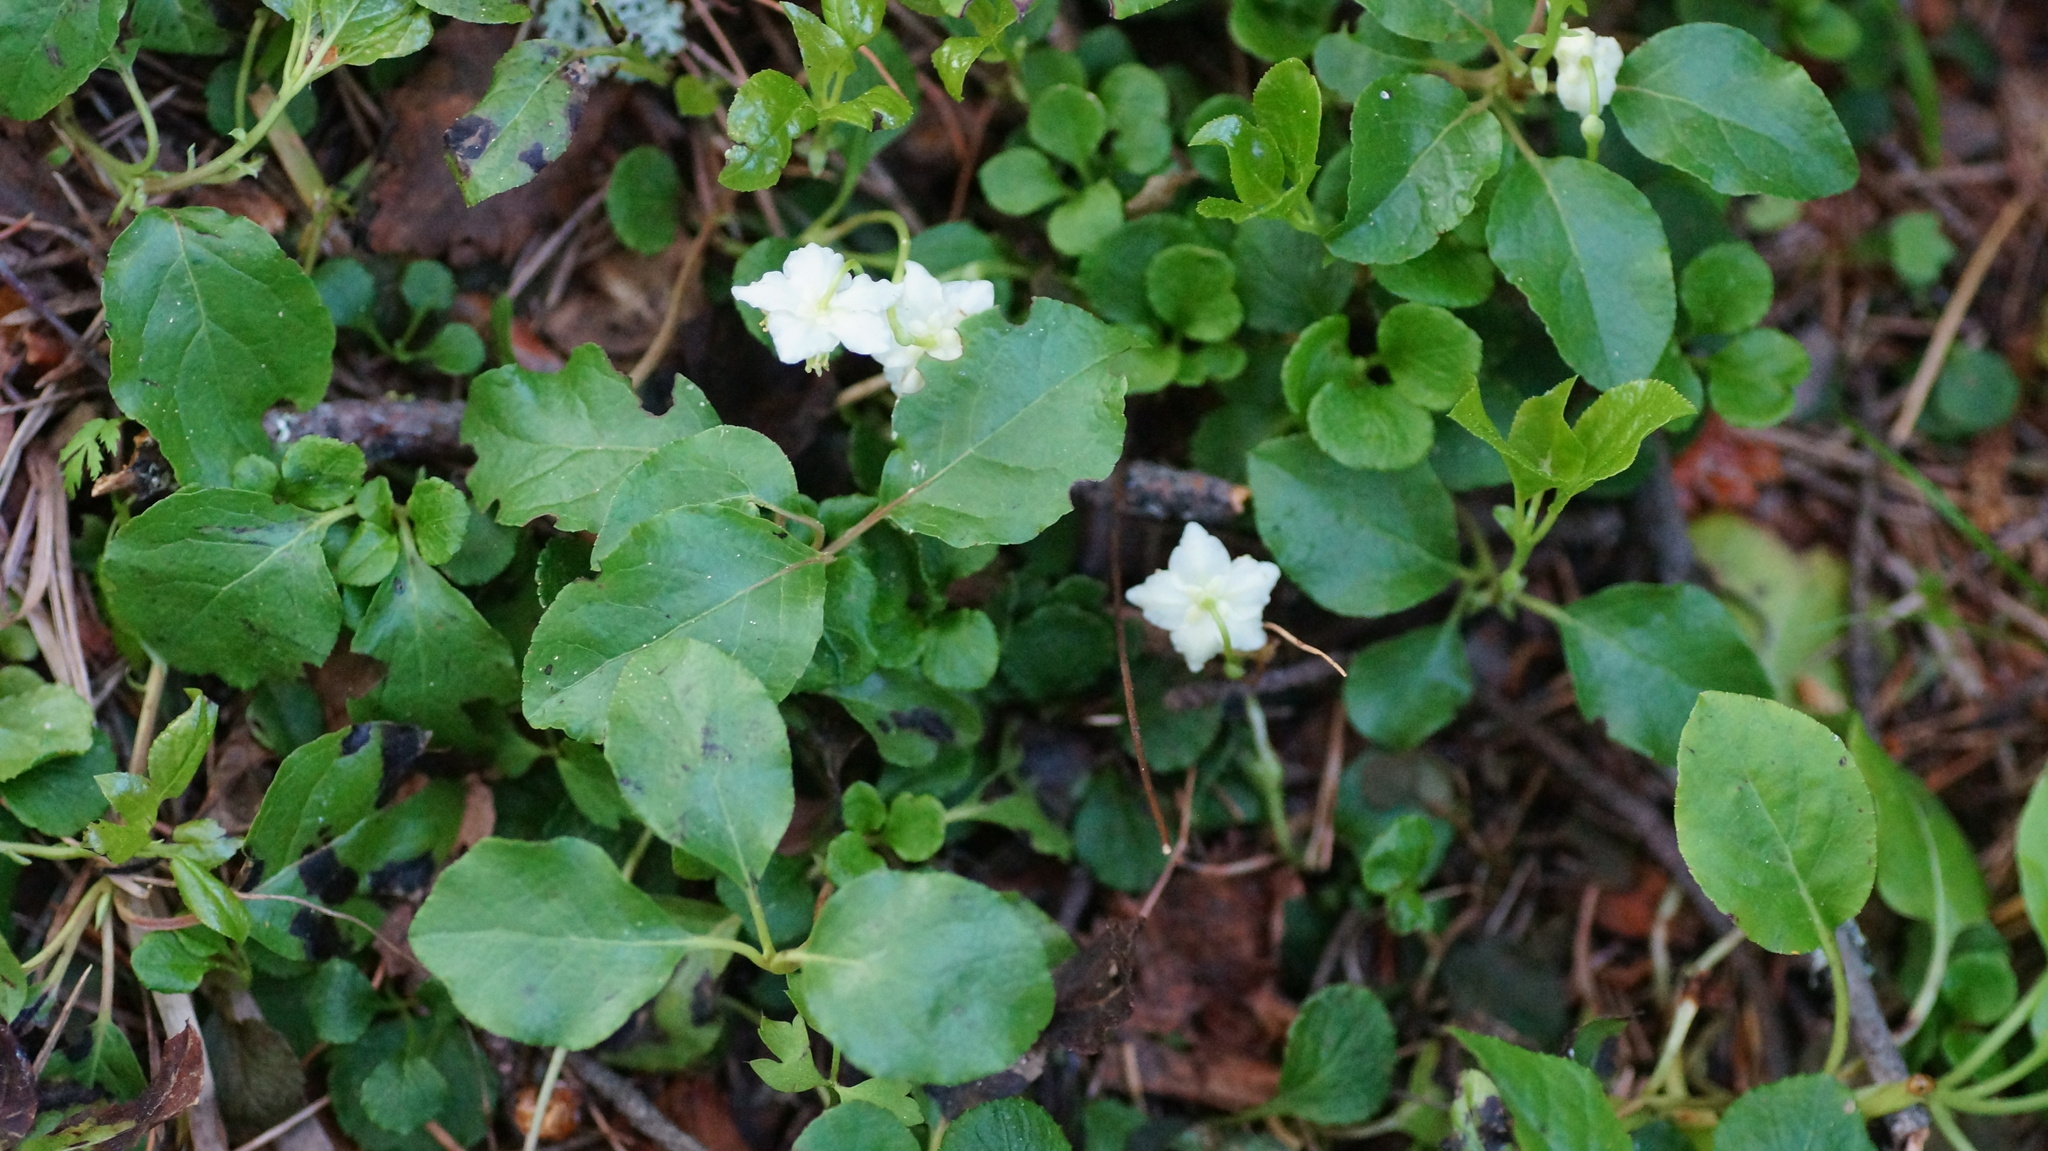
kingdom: Plantae
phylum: Tracheophyta
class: Magnoliopsida
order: Ericales
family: Ericaceae
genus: Moneses
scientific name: Moneses uniflora
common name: One-flowered wintergreen
